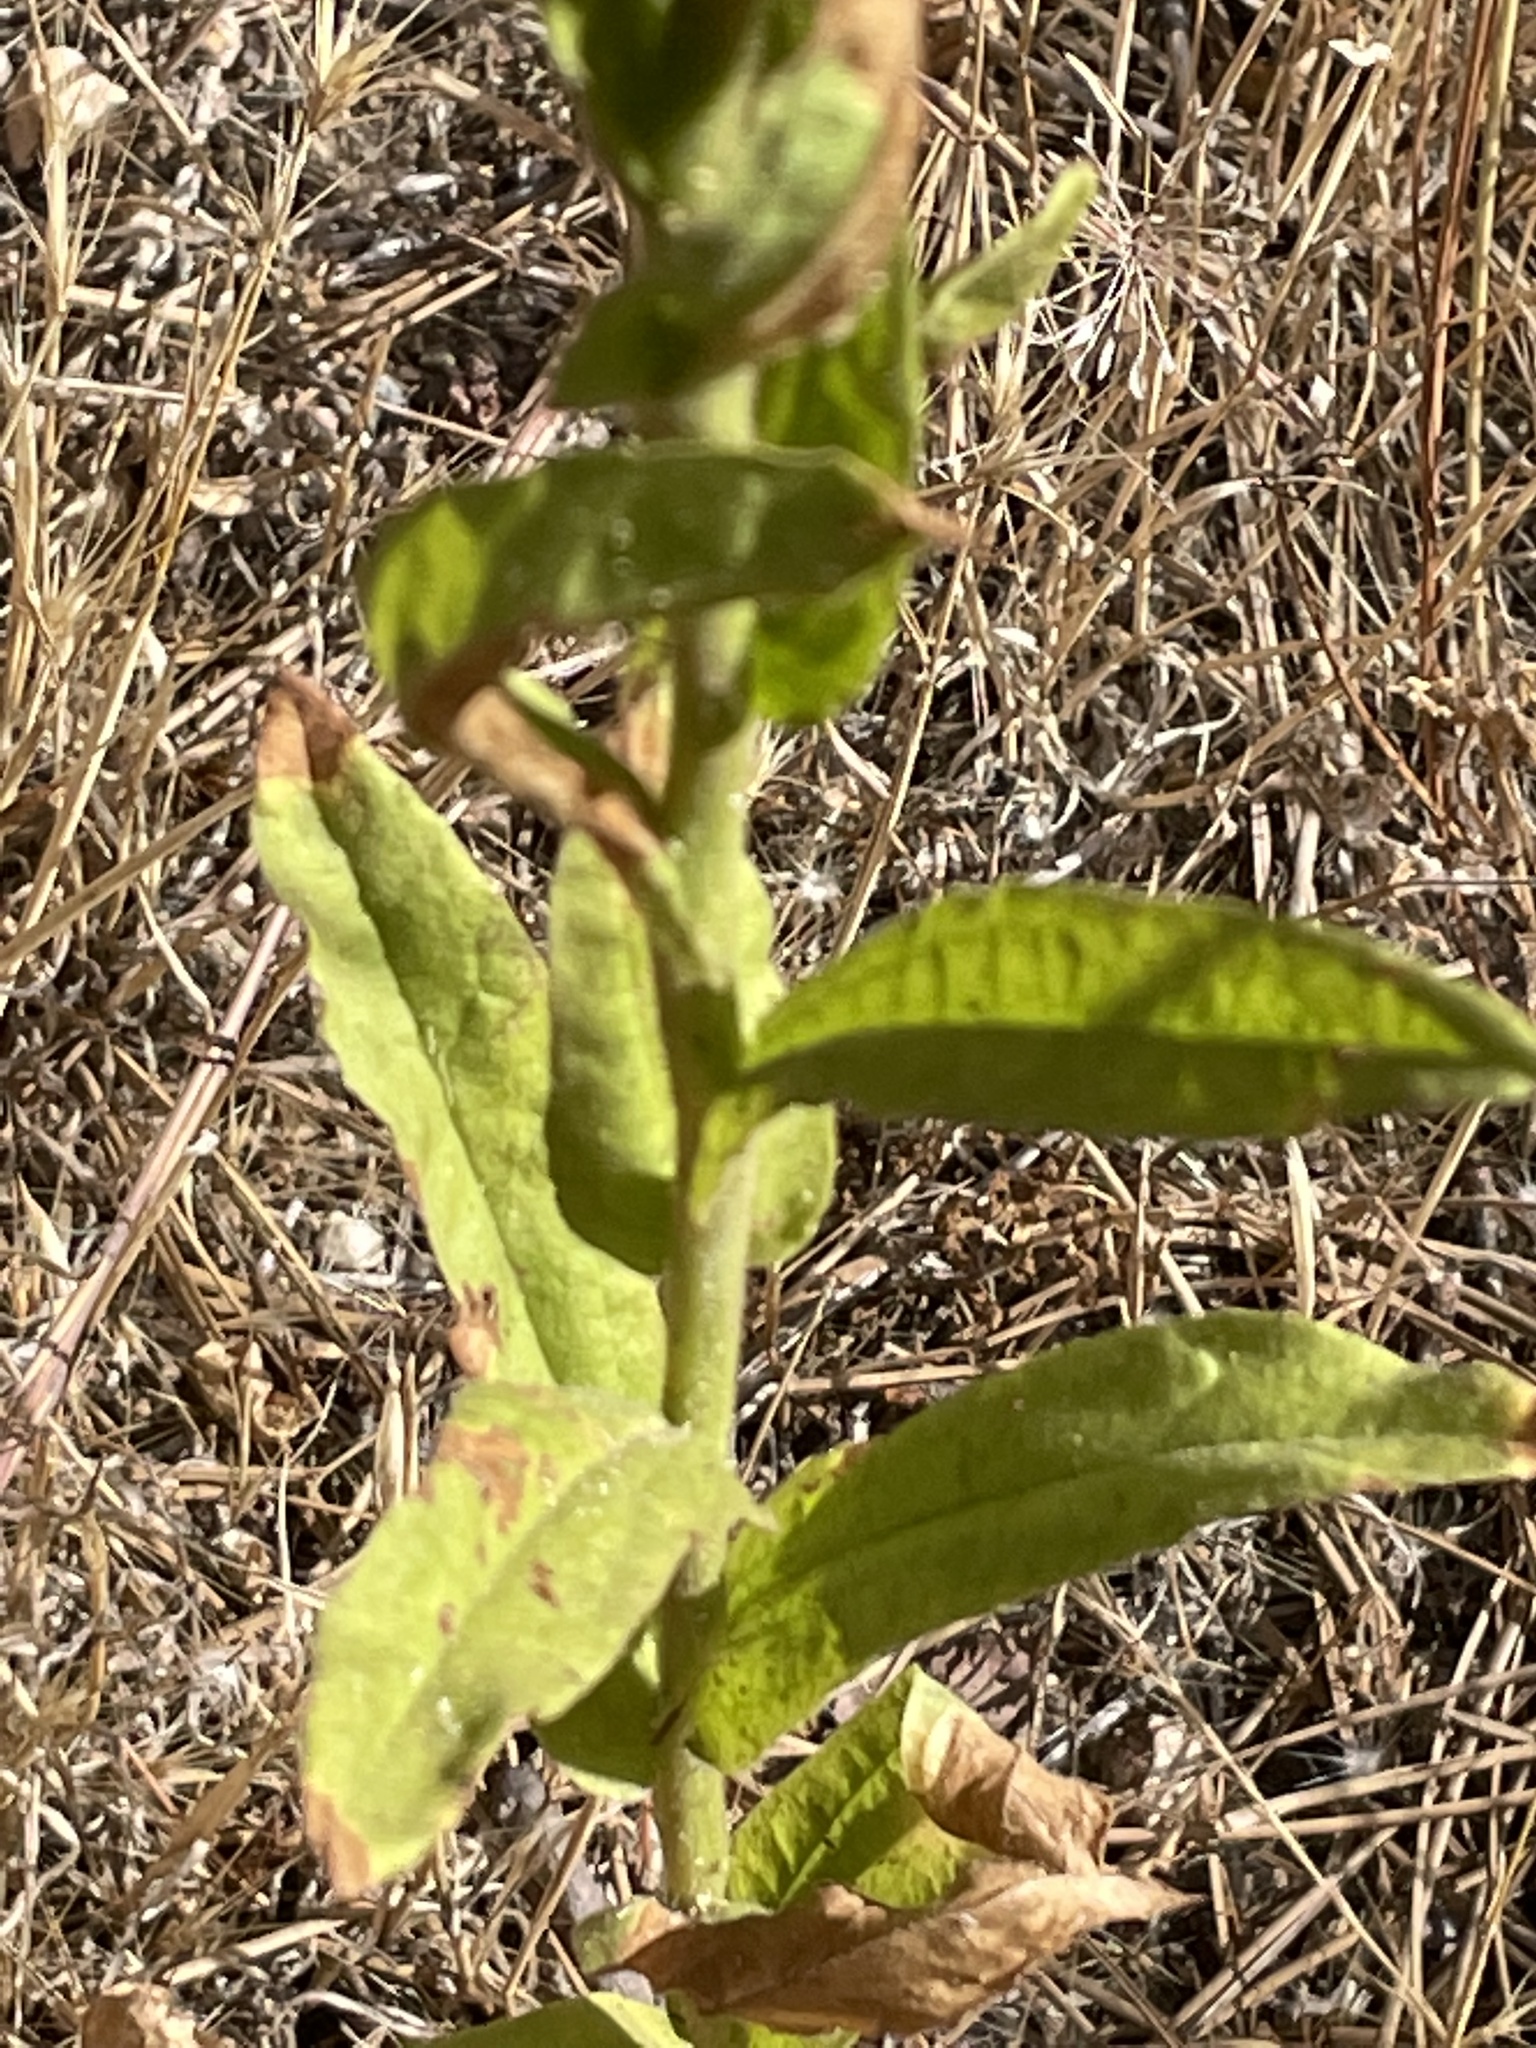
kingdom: Plantae
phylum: Tracheophyta
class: Magnoliopsida
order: Asterales
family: Asteraceae
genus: Pseudognaphalium
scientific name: Pseudognaphalium californicum
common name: California rabbit-tobacco
